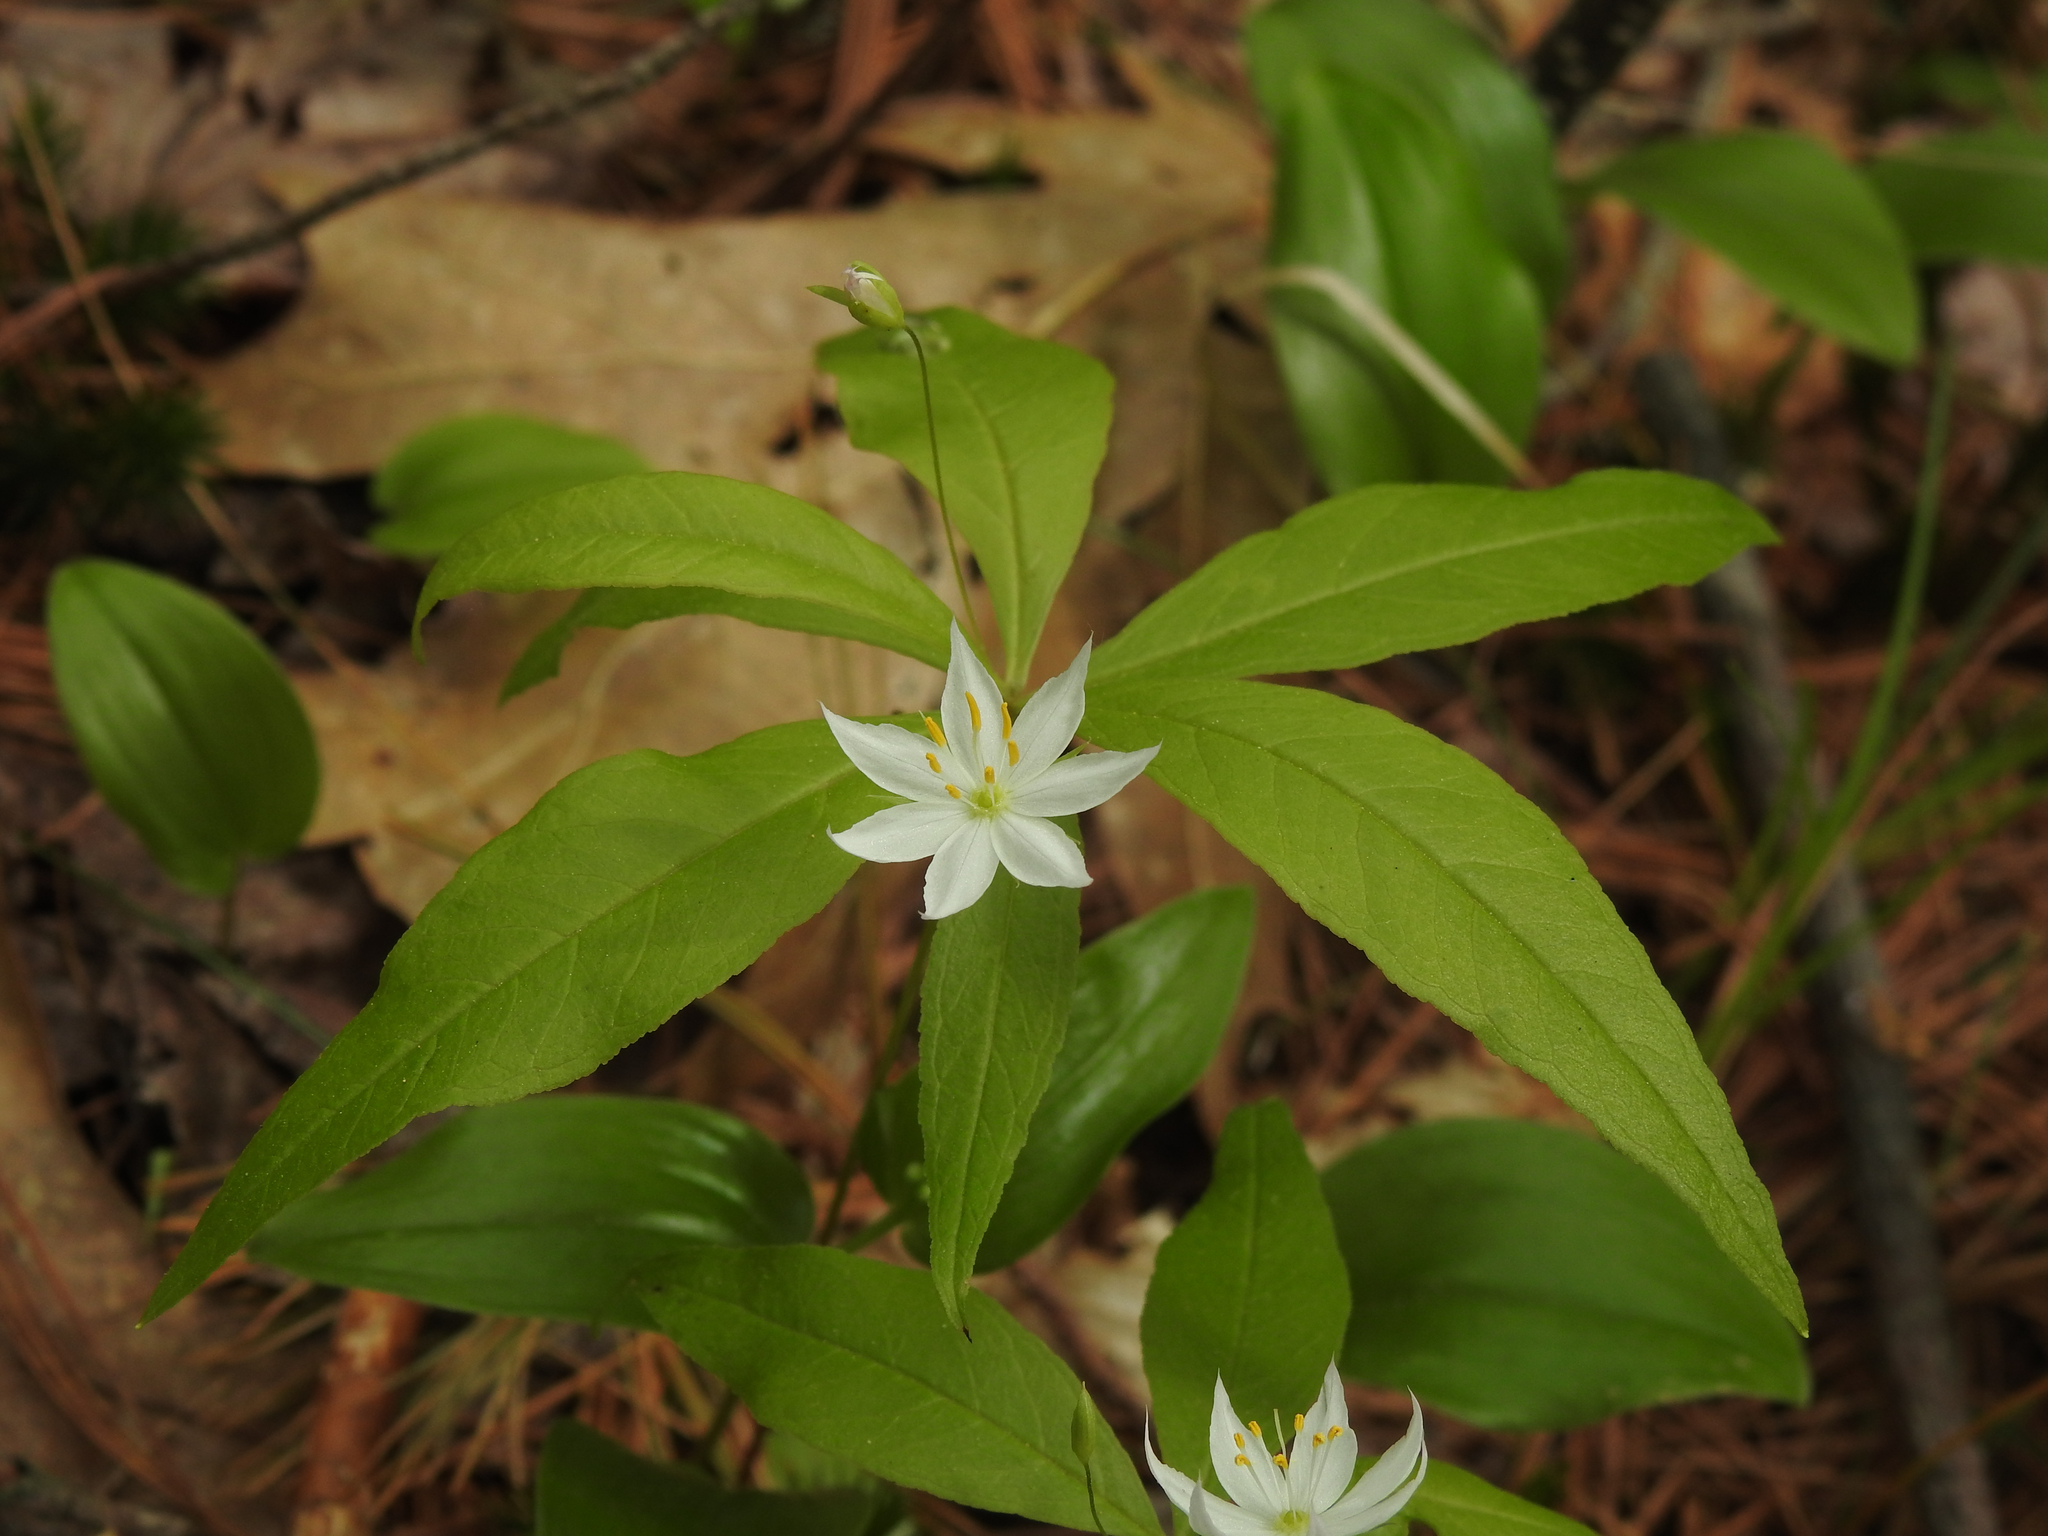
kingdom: Plantae
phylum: Tracheophyta
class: Magnoliopsida
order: Ericales
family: Primulaceae
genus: Lysimachia
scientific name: Lysimachia borealis
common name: American starflower
